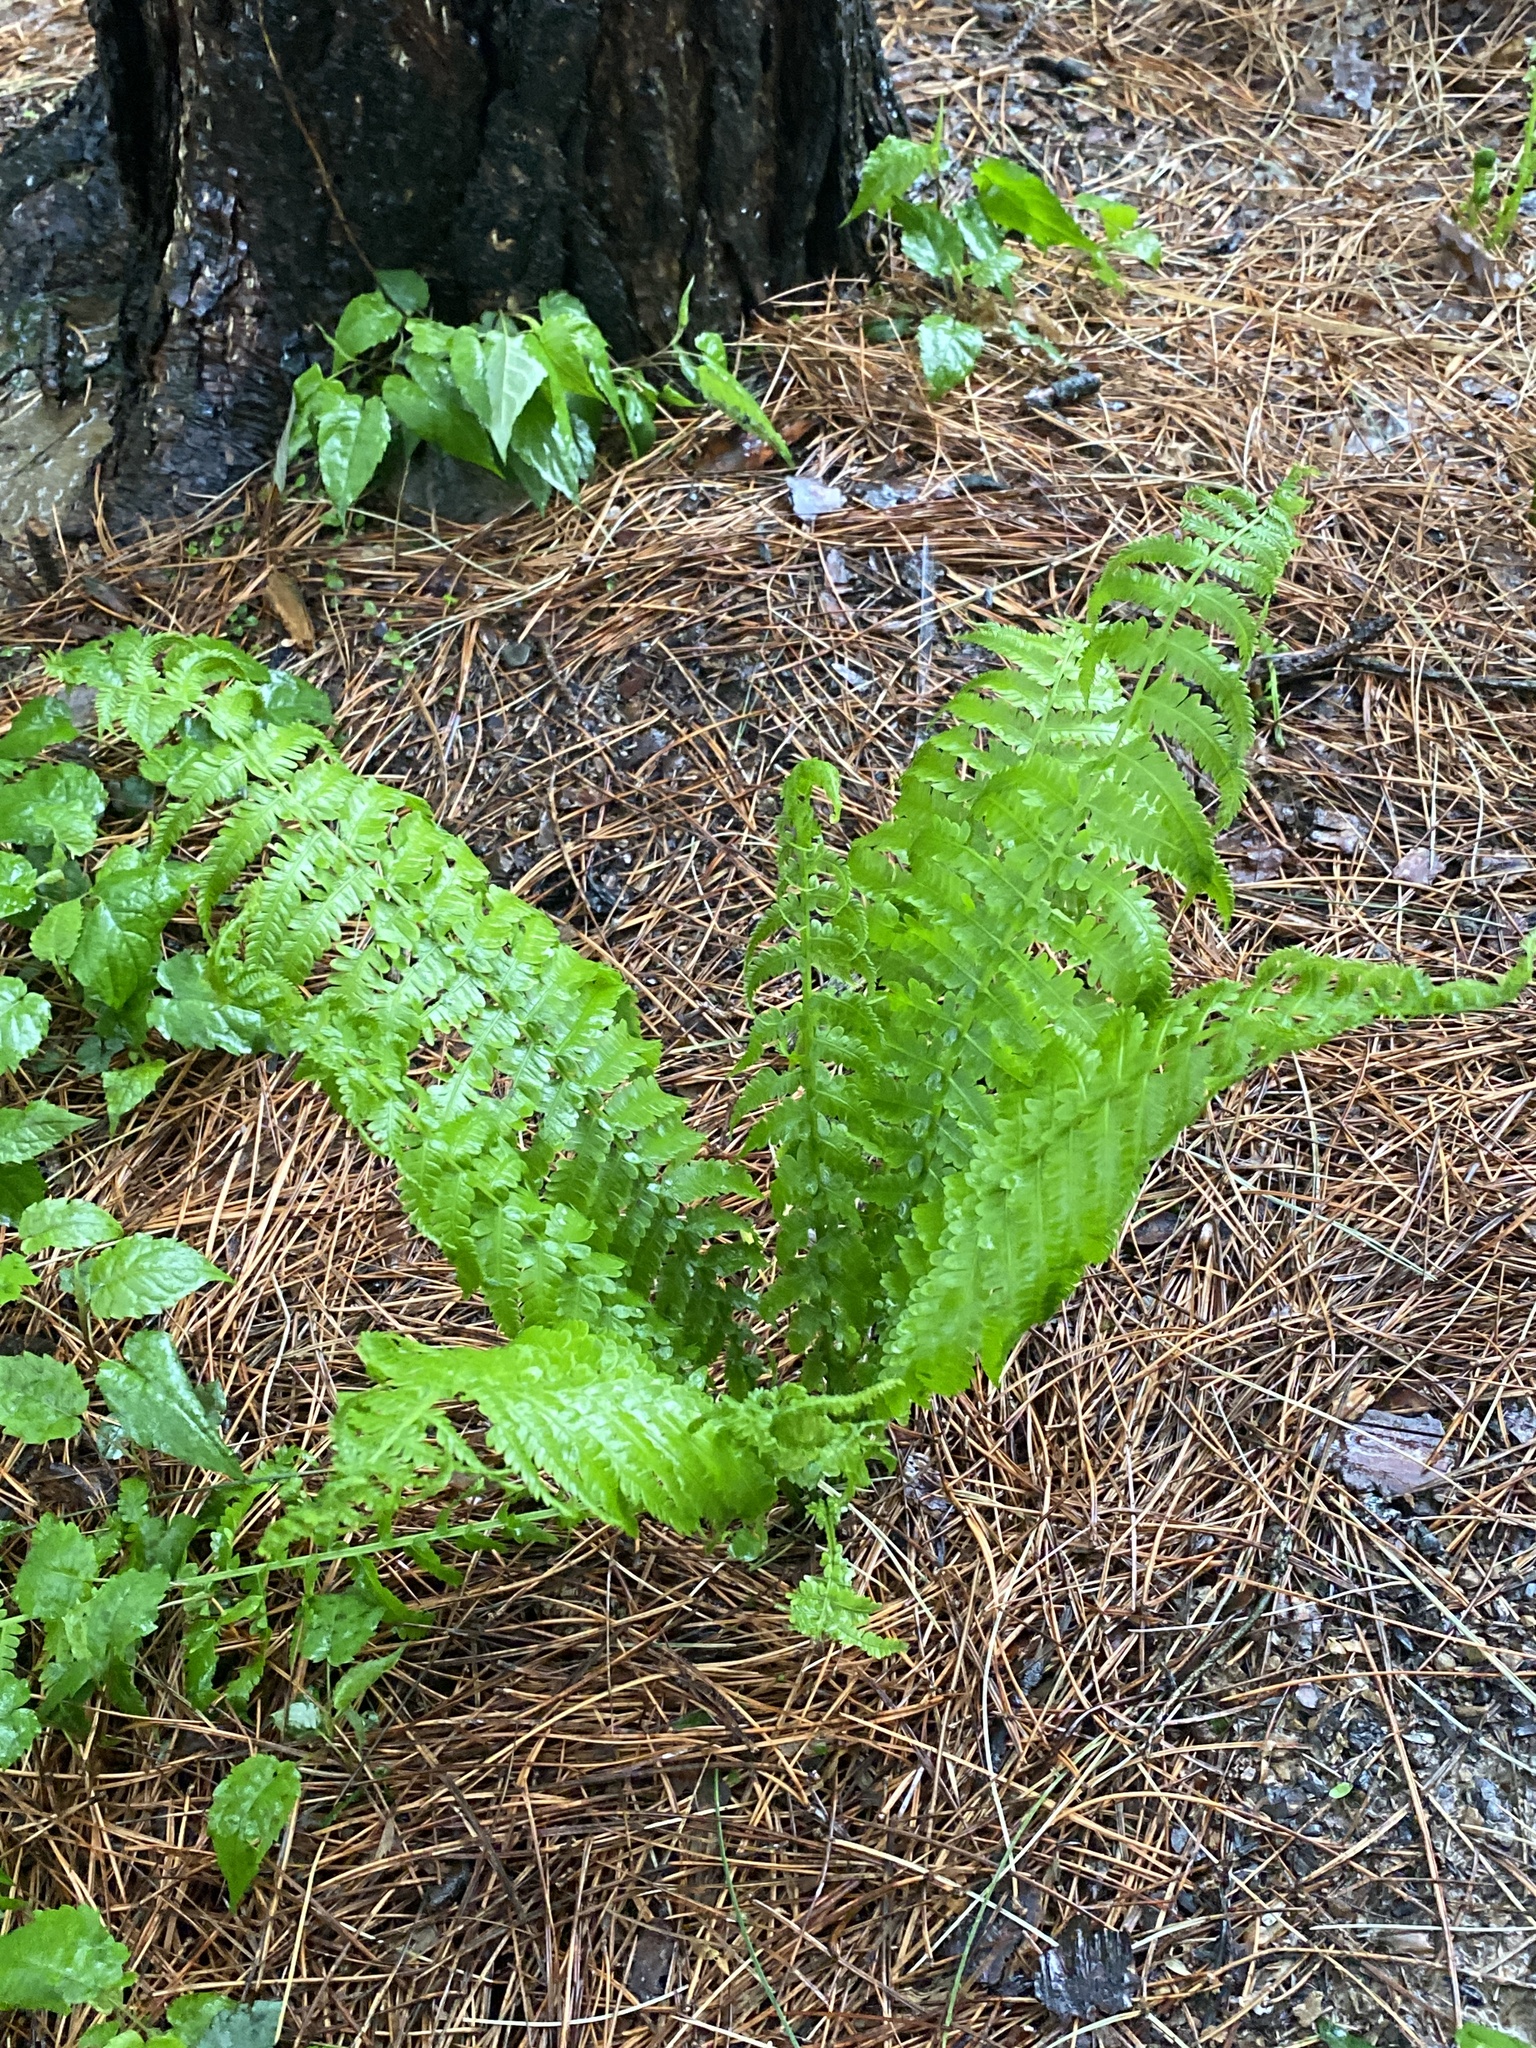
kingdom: Plantae
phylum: Tracheophyta
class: Polypodiopsida
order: Polypodiales
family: Onocleaceae
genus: Matteuccia
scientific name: Matteuccia struthiopteris
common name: Ostrich fern
